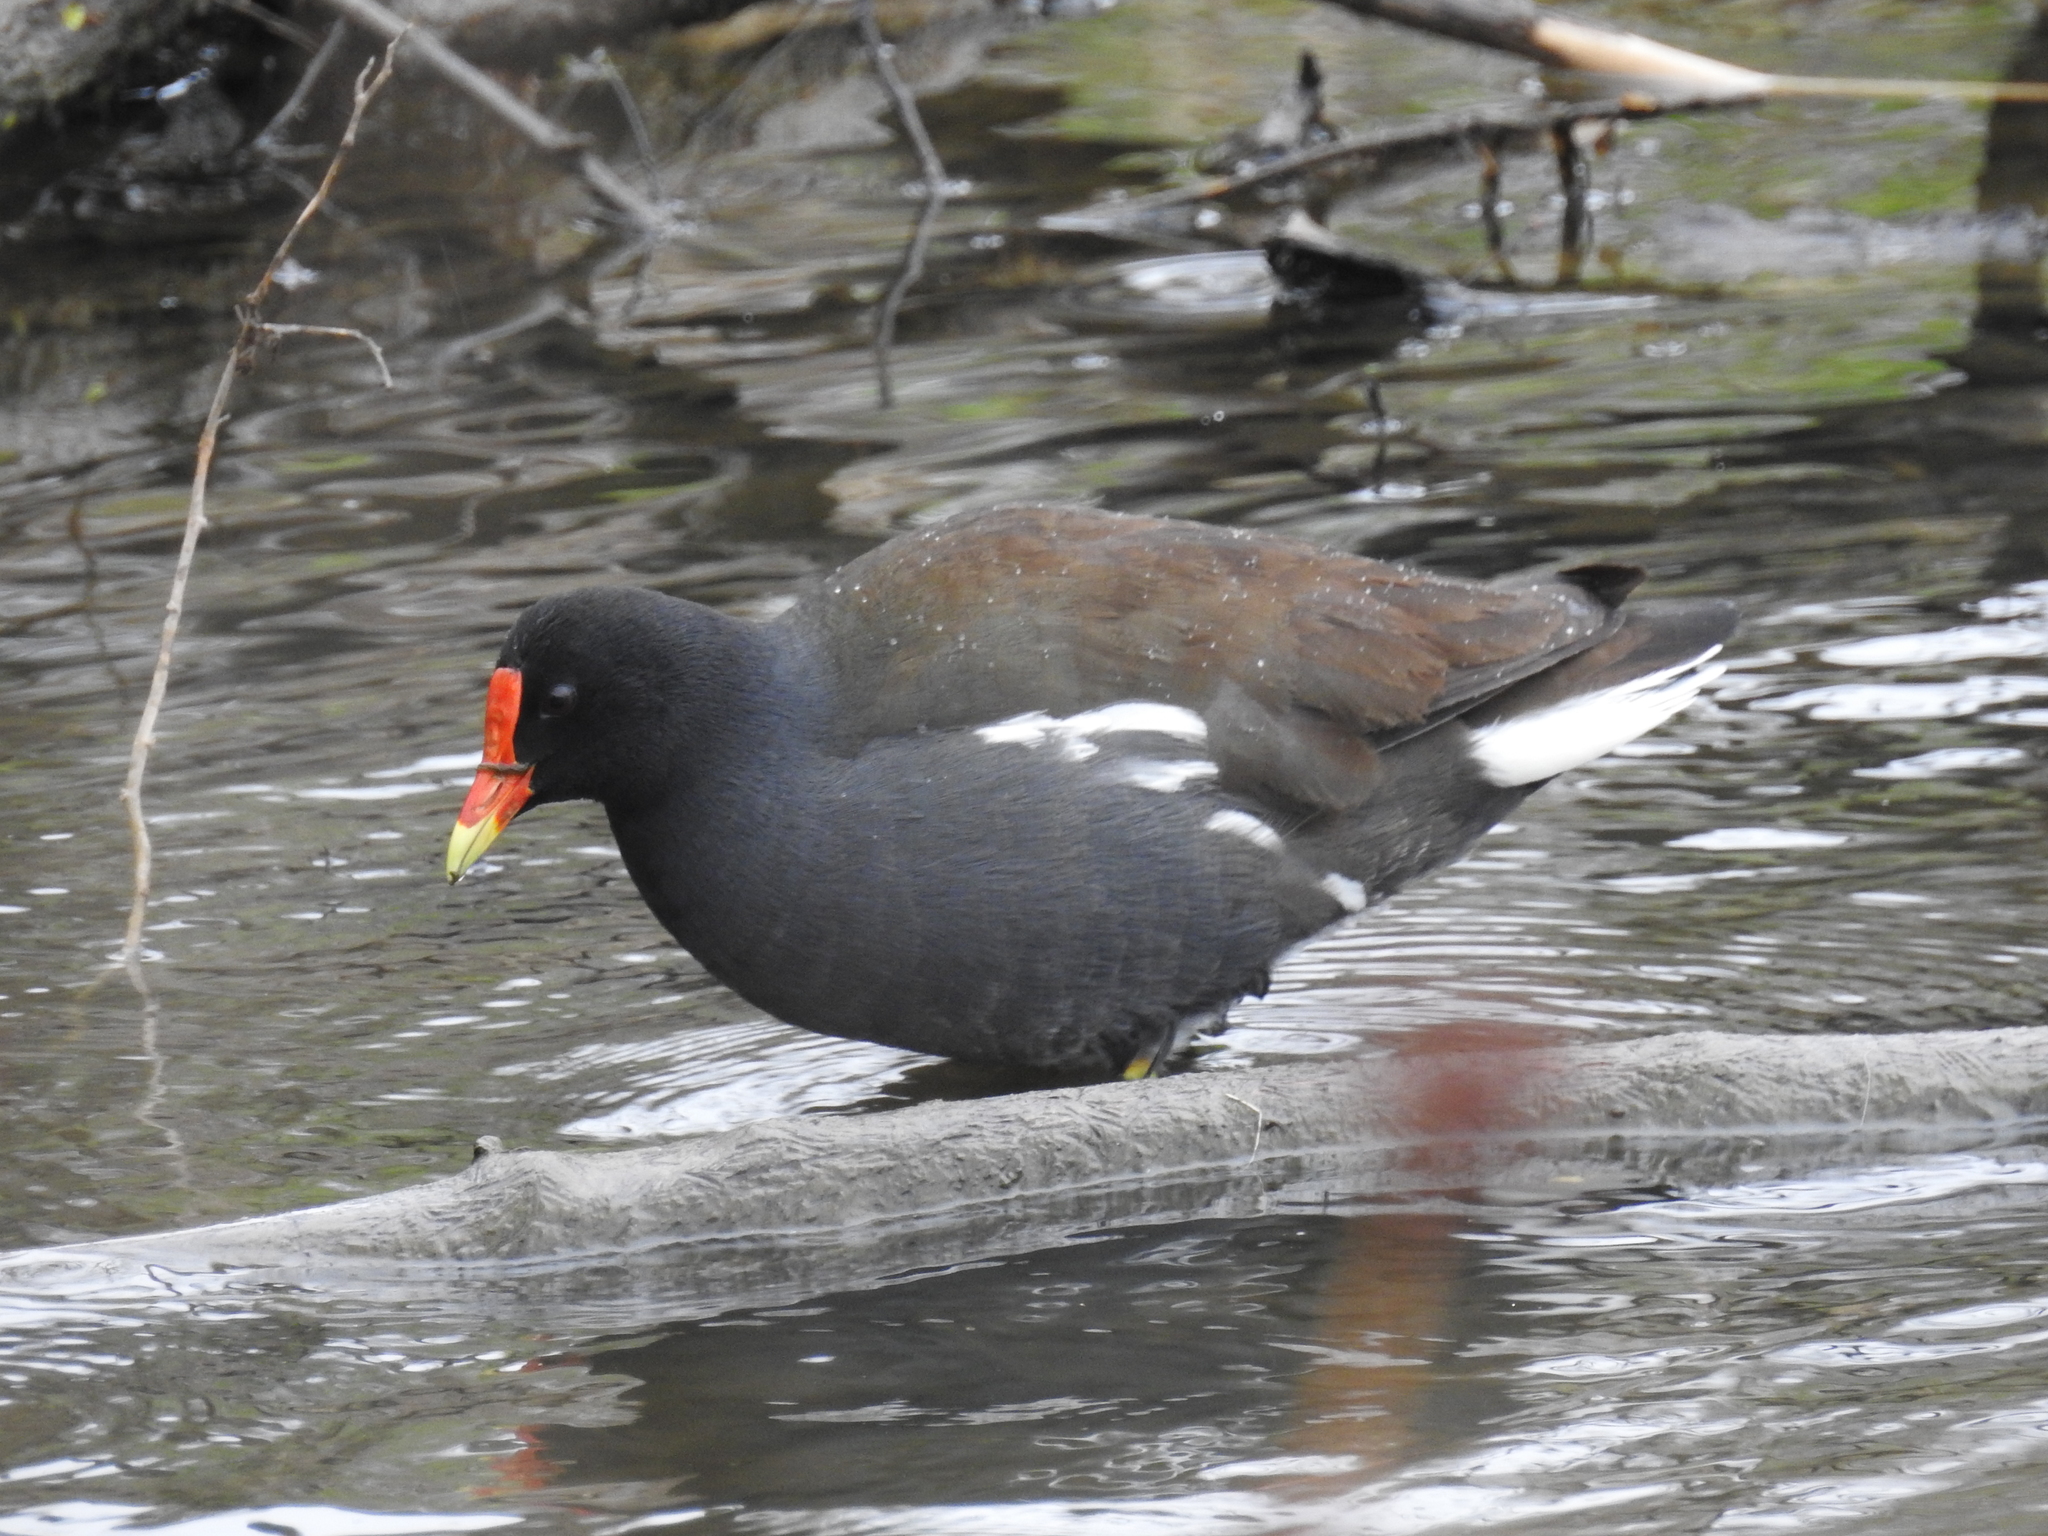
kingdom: Animalia
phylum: Chordata
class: Aves
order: Gruiformes
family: Rallidae
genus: Gallinula
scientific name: Gallinula chloropus
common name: Common moorhen
